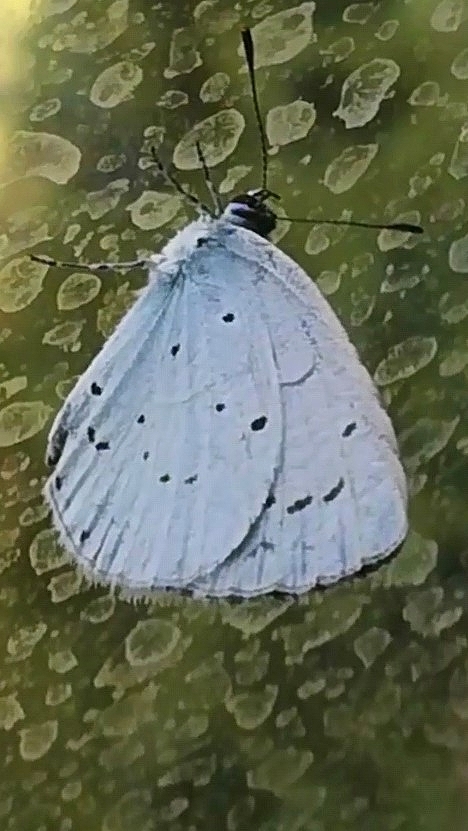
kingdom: Animalia
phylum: Arthropoda
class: Insecta
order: Lepidoptera
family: Lycaenidae
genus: Celastrina
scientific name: Celastrina argiolus
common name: Holly blue
